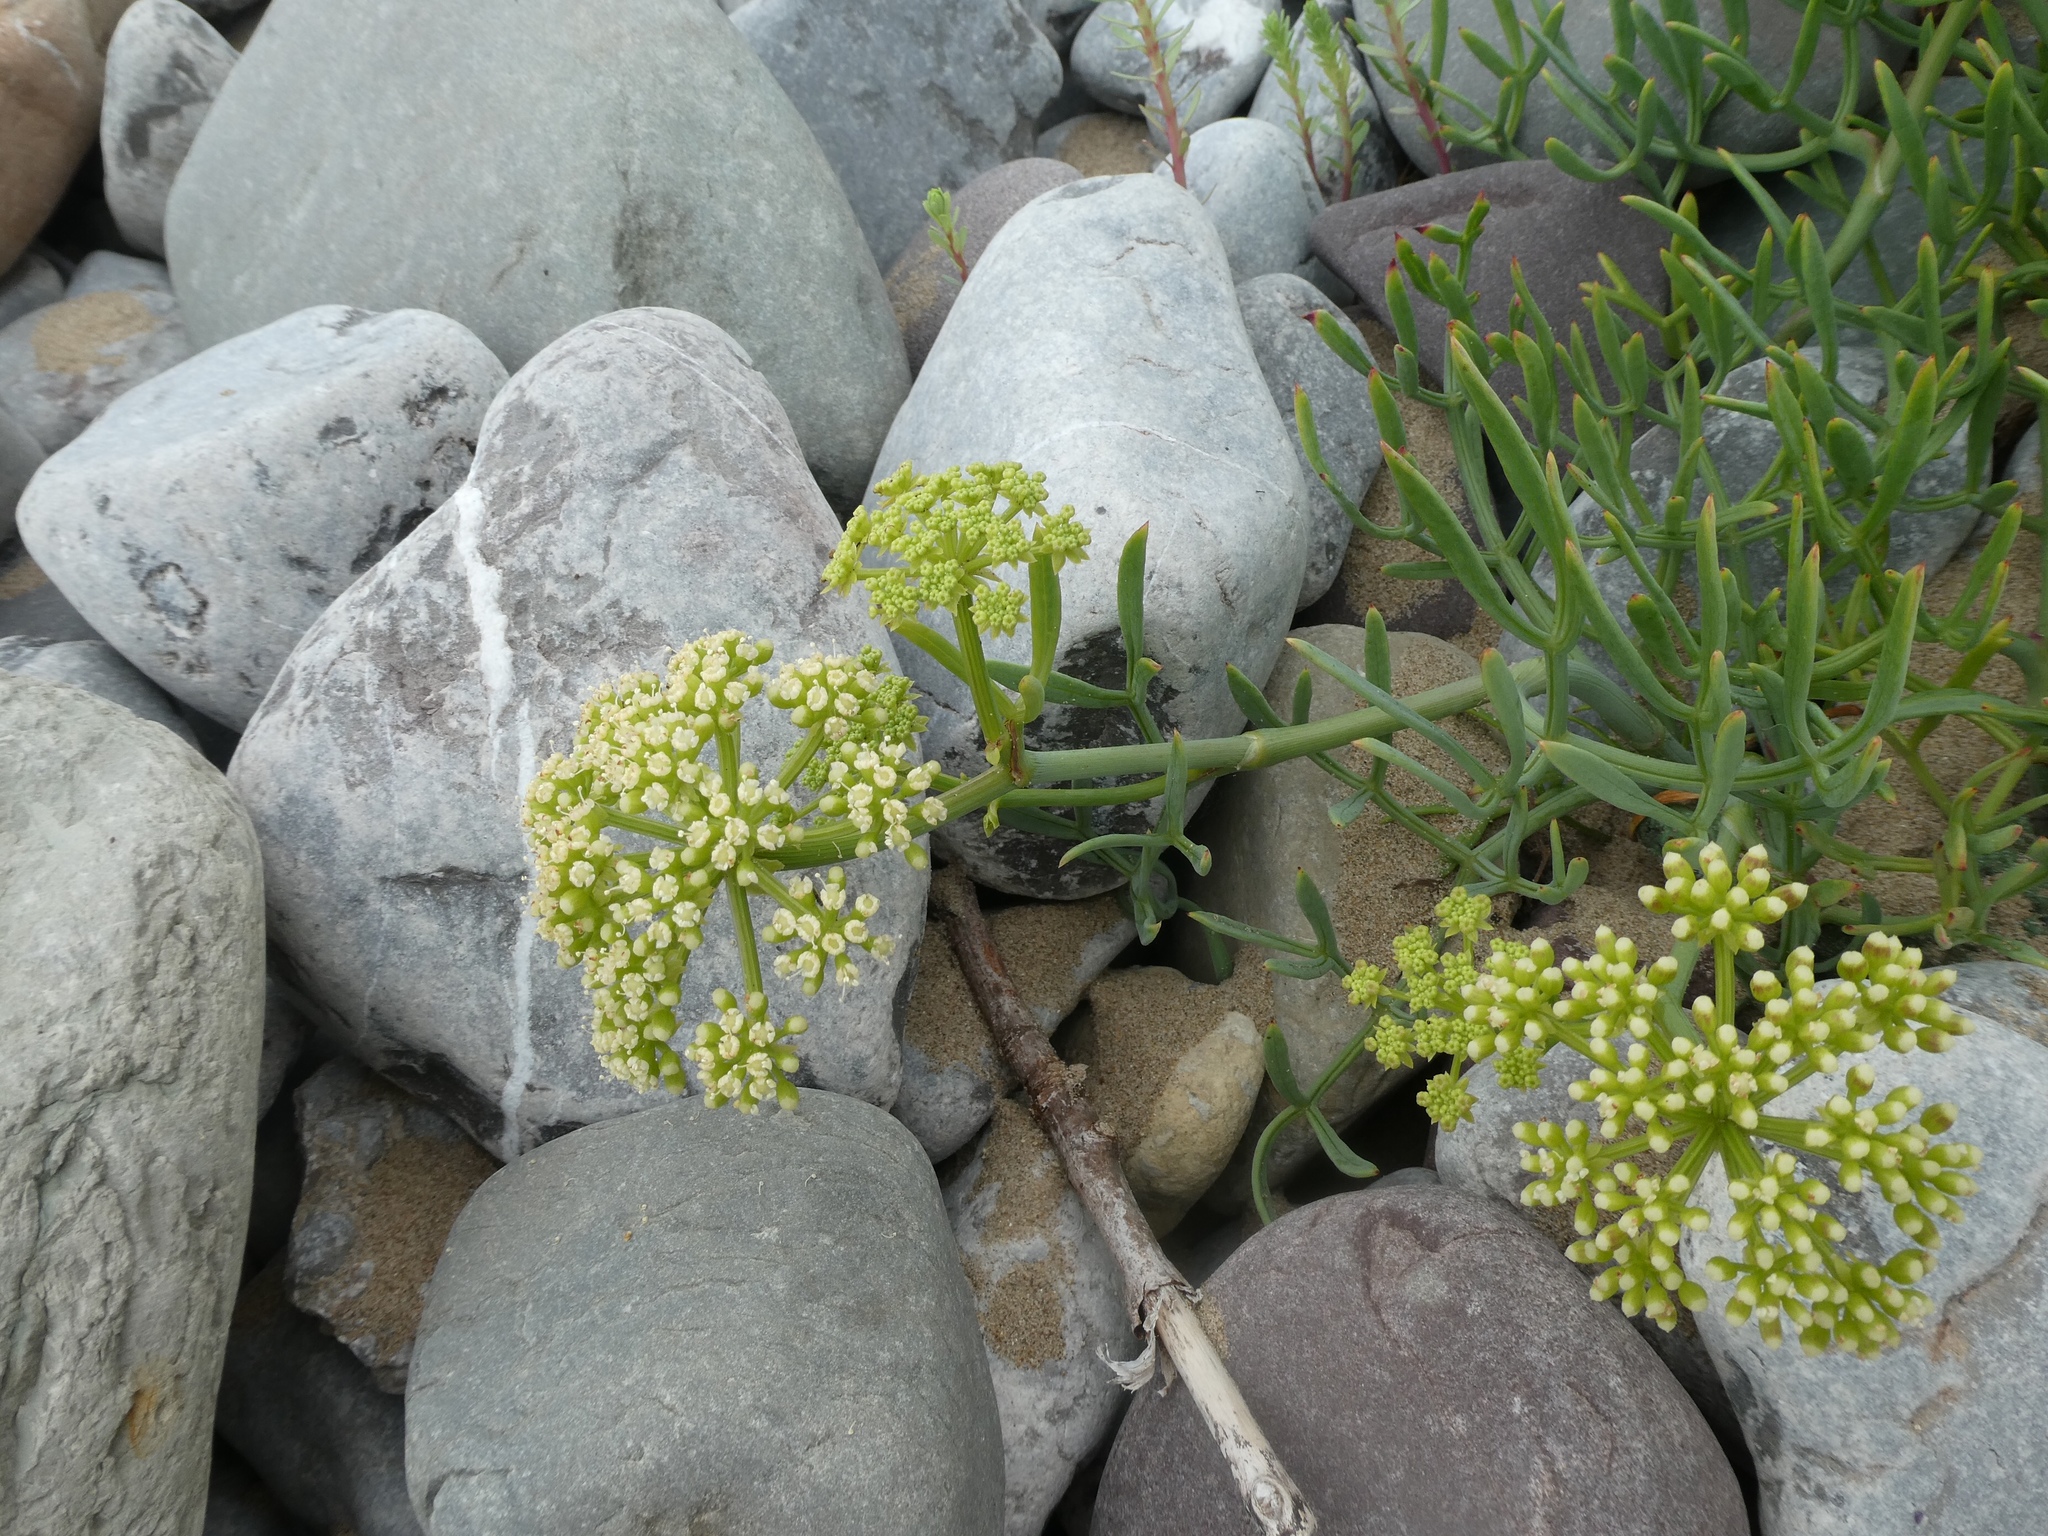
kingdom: Plantae
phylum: Tracheophyta
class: Magnoliopsida
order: Apiales
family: Apiaceae
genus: Crithmum
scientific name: Crithmum maritimum
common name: Rock samphire
